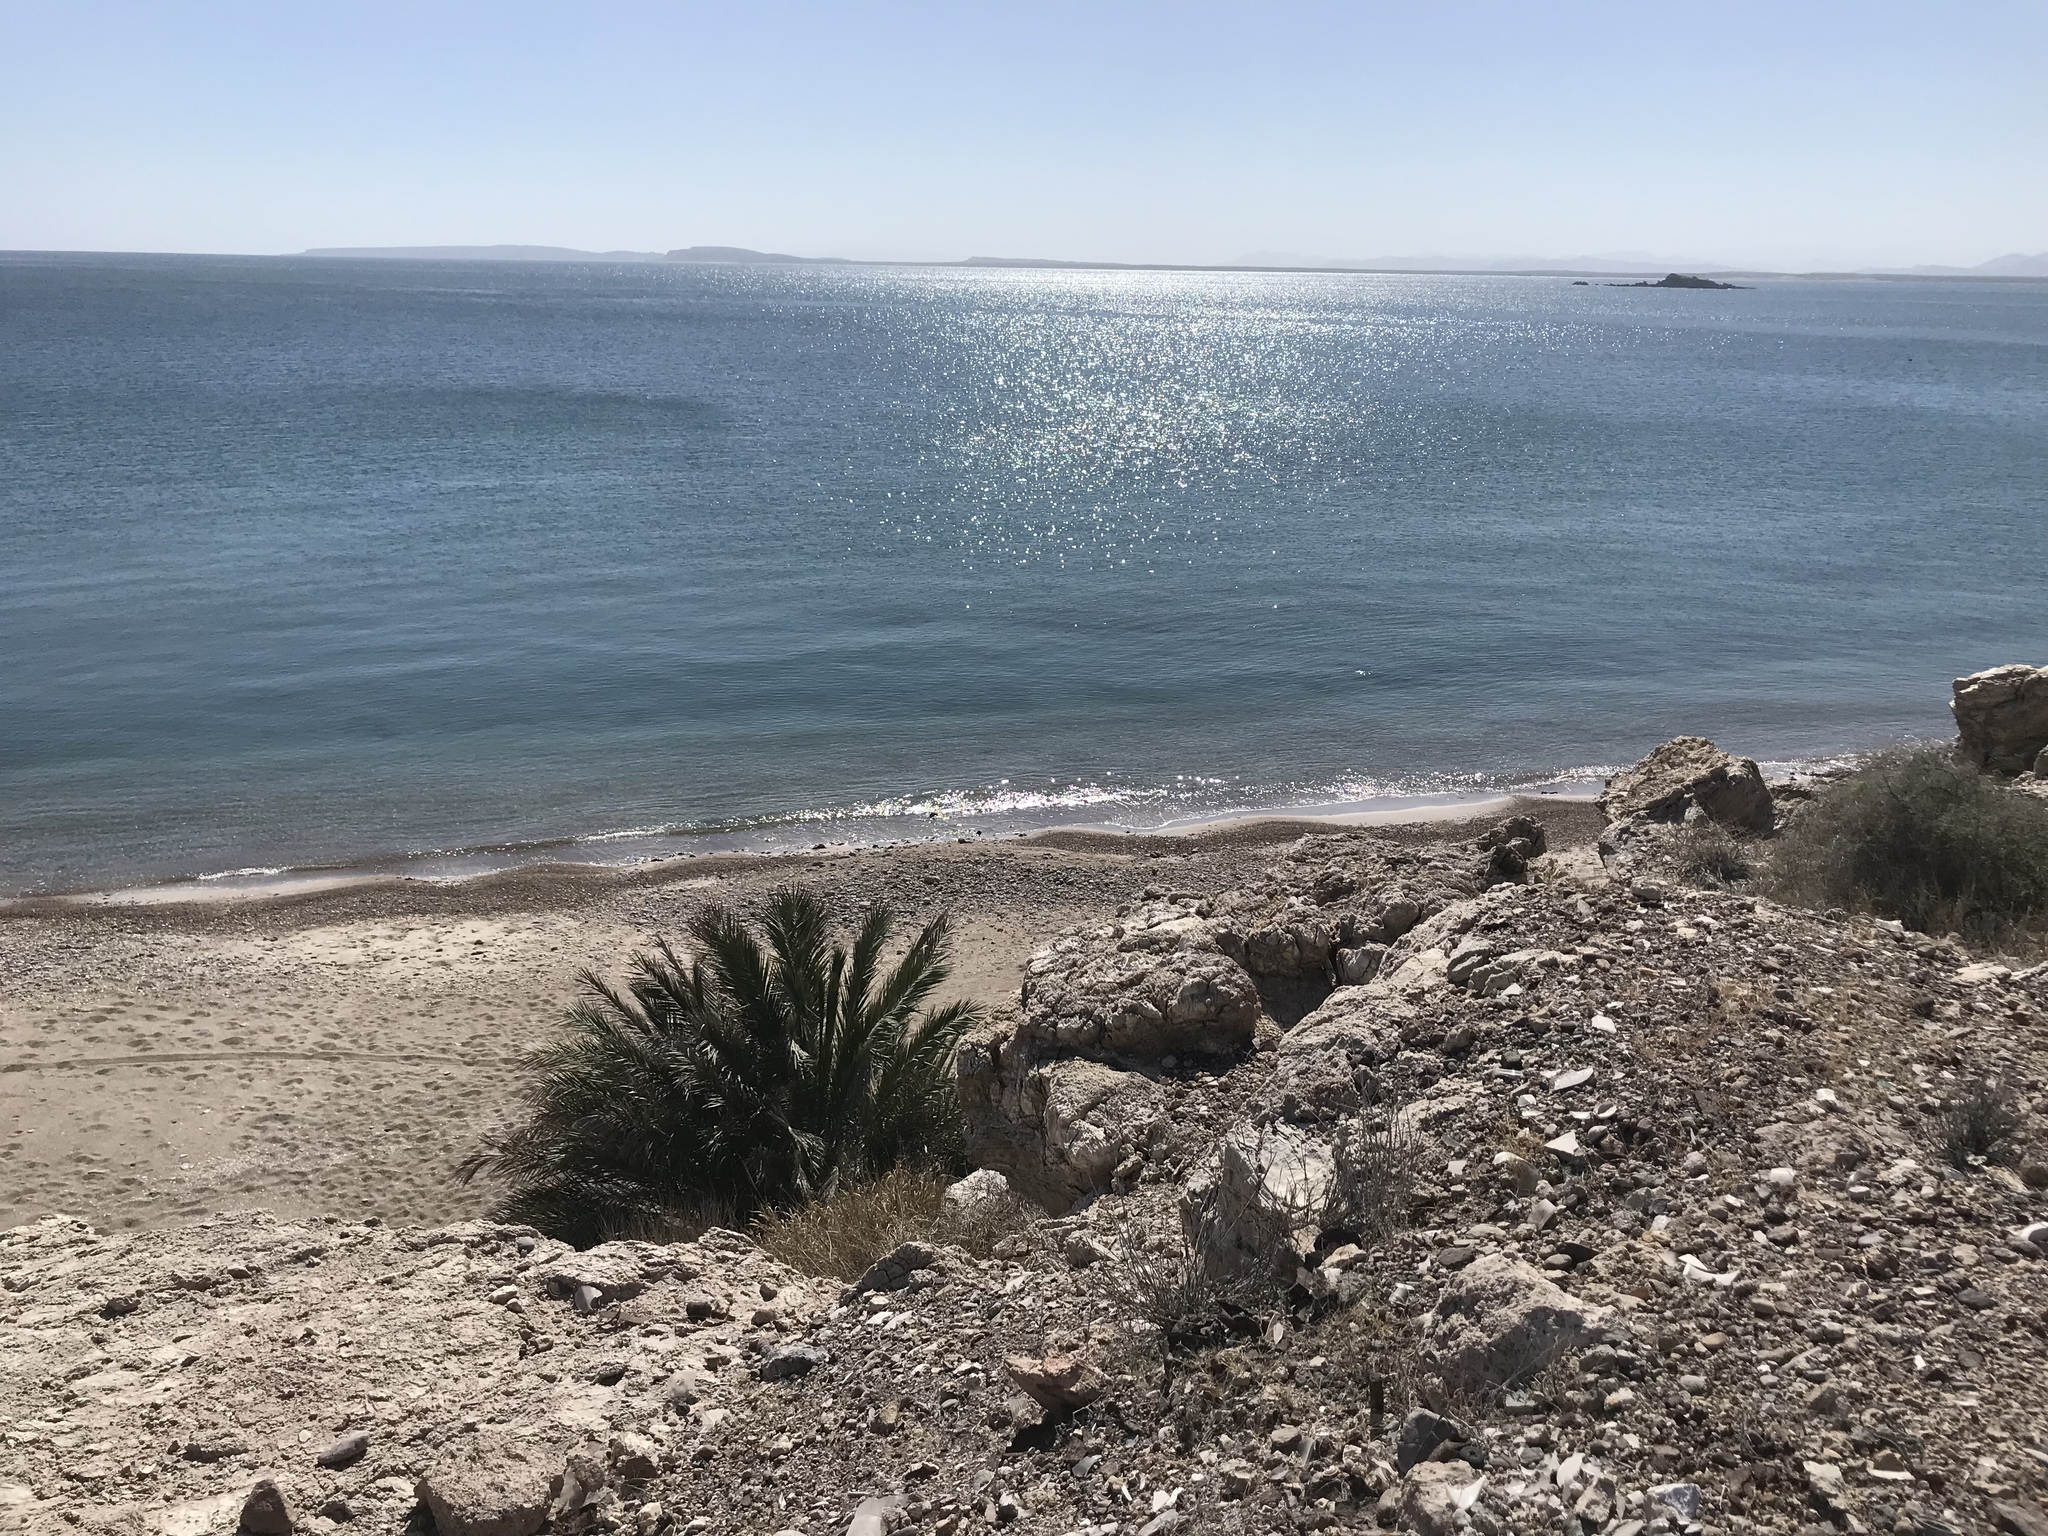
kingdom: Plantae
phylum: Tracheophyta
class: Liliopsida
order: Arecales
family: Arecaceae
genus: Phoenix
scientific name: Phoenix dactylifera
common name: Date palm
